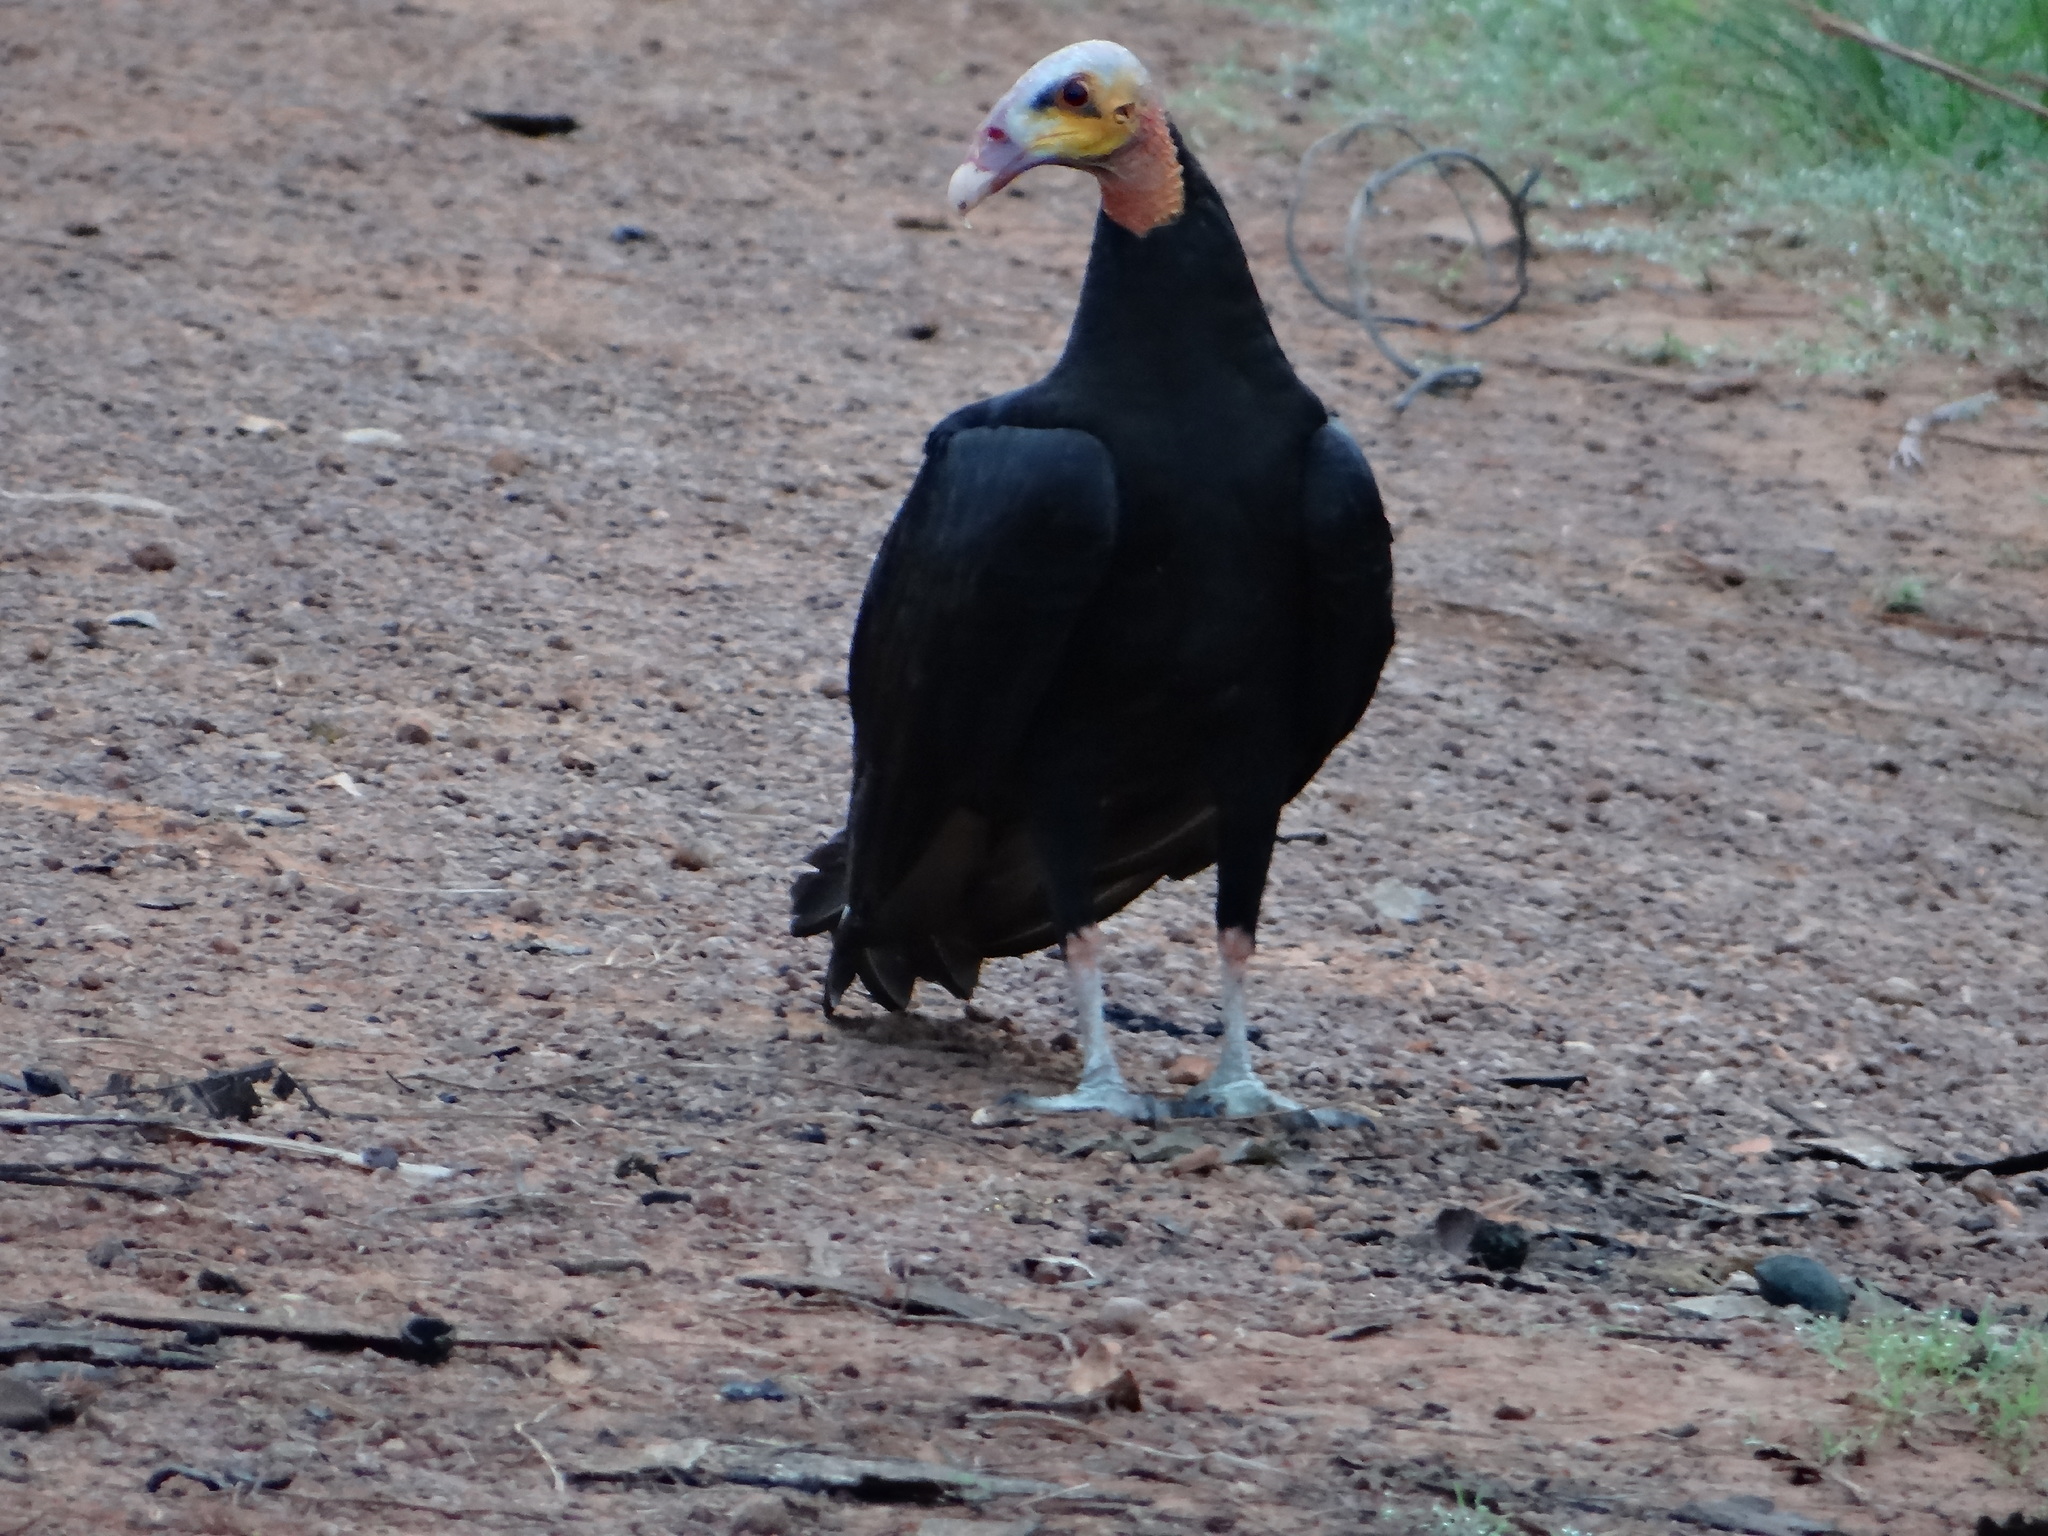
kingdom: Animalia
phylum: Chordata
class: Aves
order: Accipitriformes
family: Cathartidae
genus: Cathartes
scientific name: Cathartes burrovianus
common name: Lesser yellow-headed vulture
